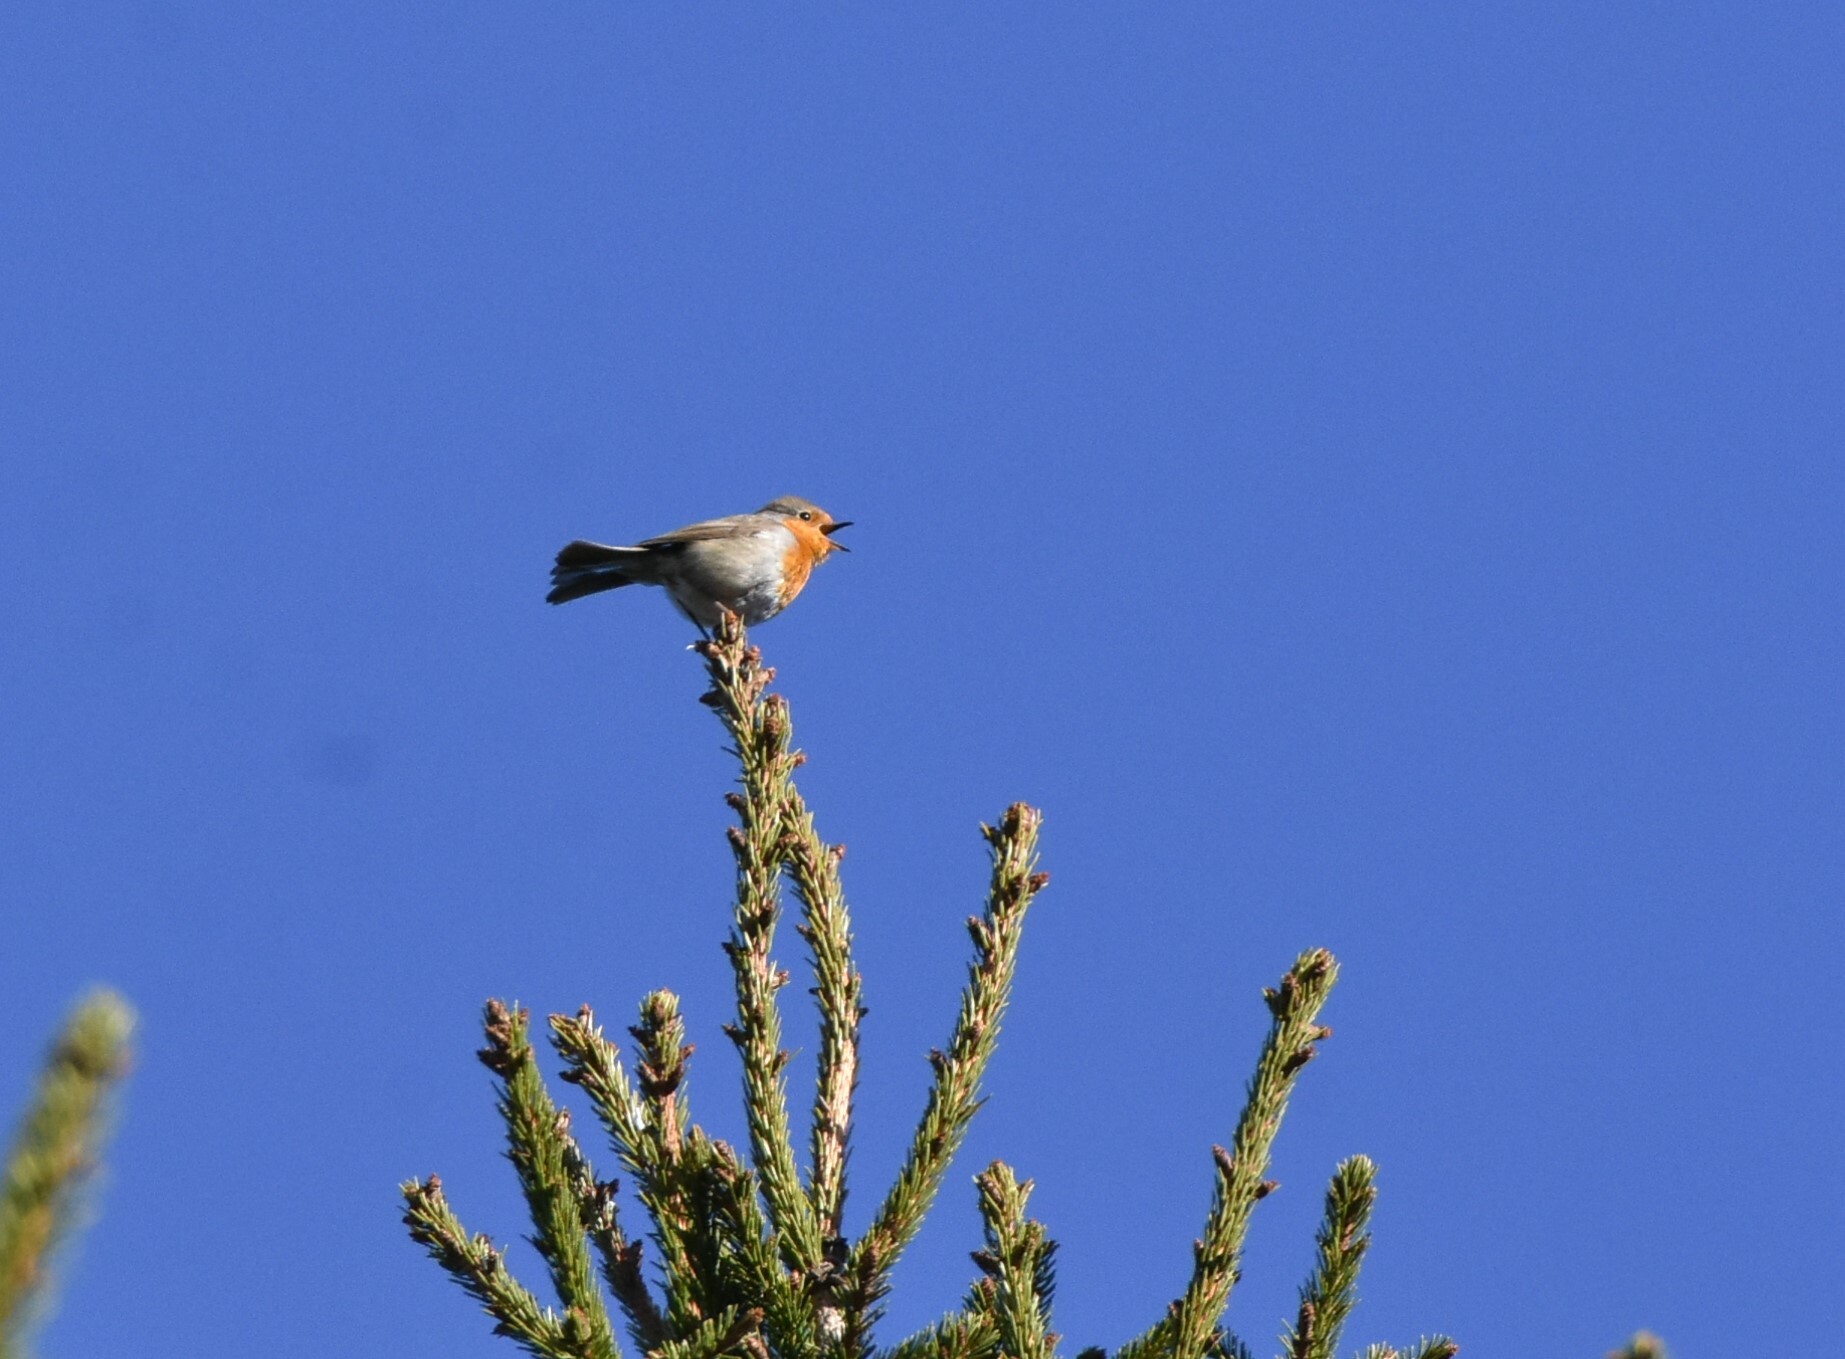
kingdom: Animalia
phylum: Chordata
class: Aves
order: Passeriformes
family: Muscicapidae
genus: Erithacus
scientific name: Erithacus rubecula
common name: European robin
